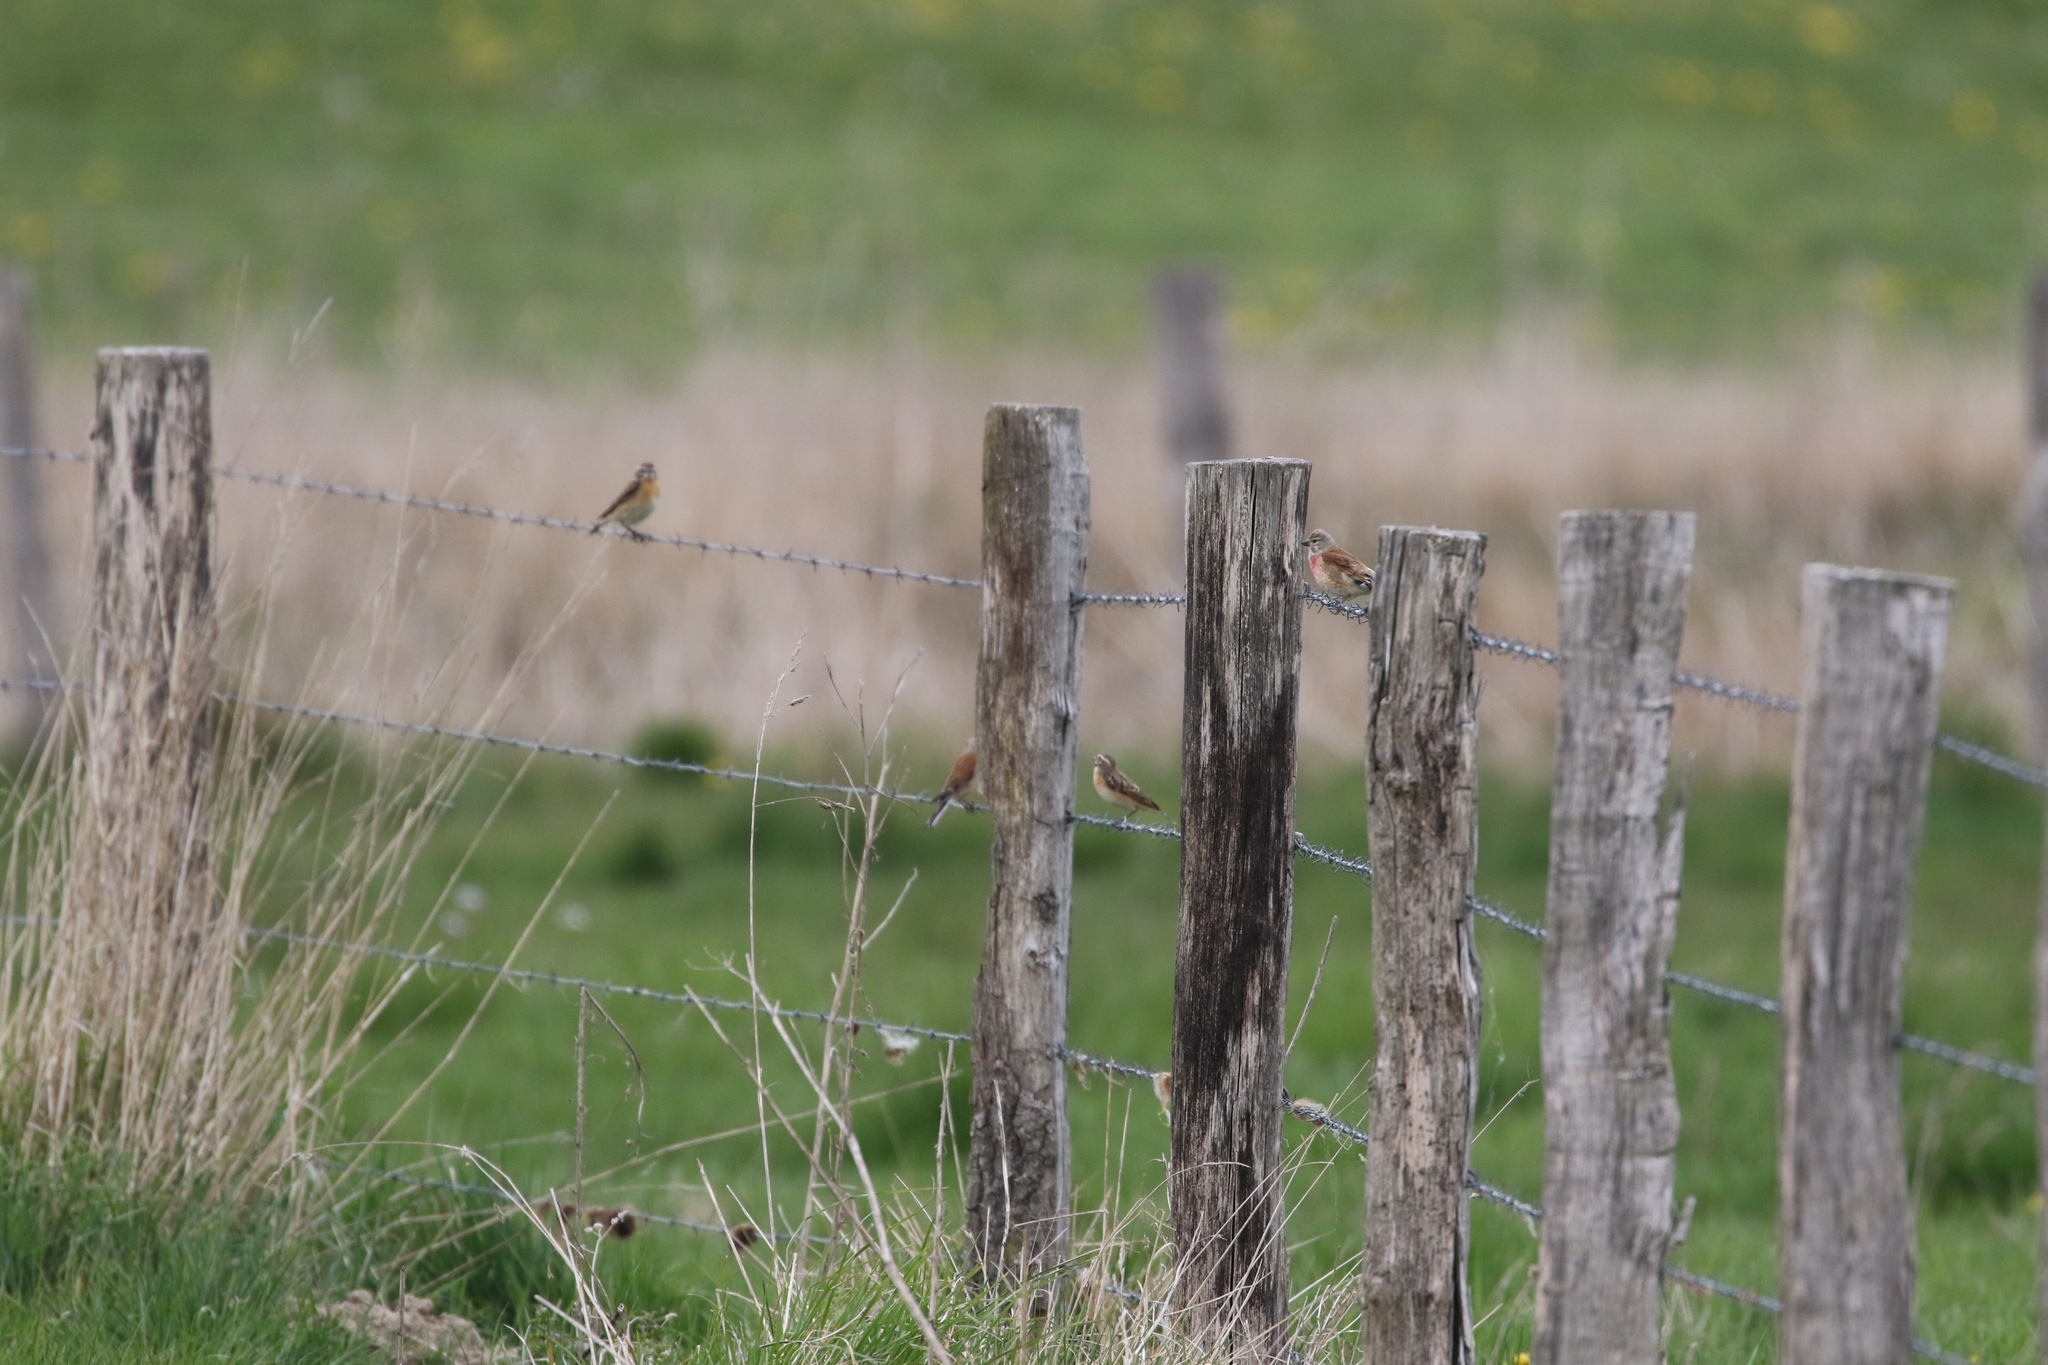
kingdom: Animalia
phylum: Chordata
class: Aves
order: Passeriformes
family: Fringillidae
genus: Linaria
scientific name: Linaria cannabina
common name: Common linnet
